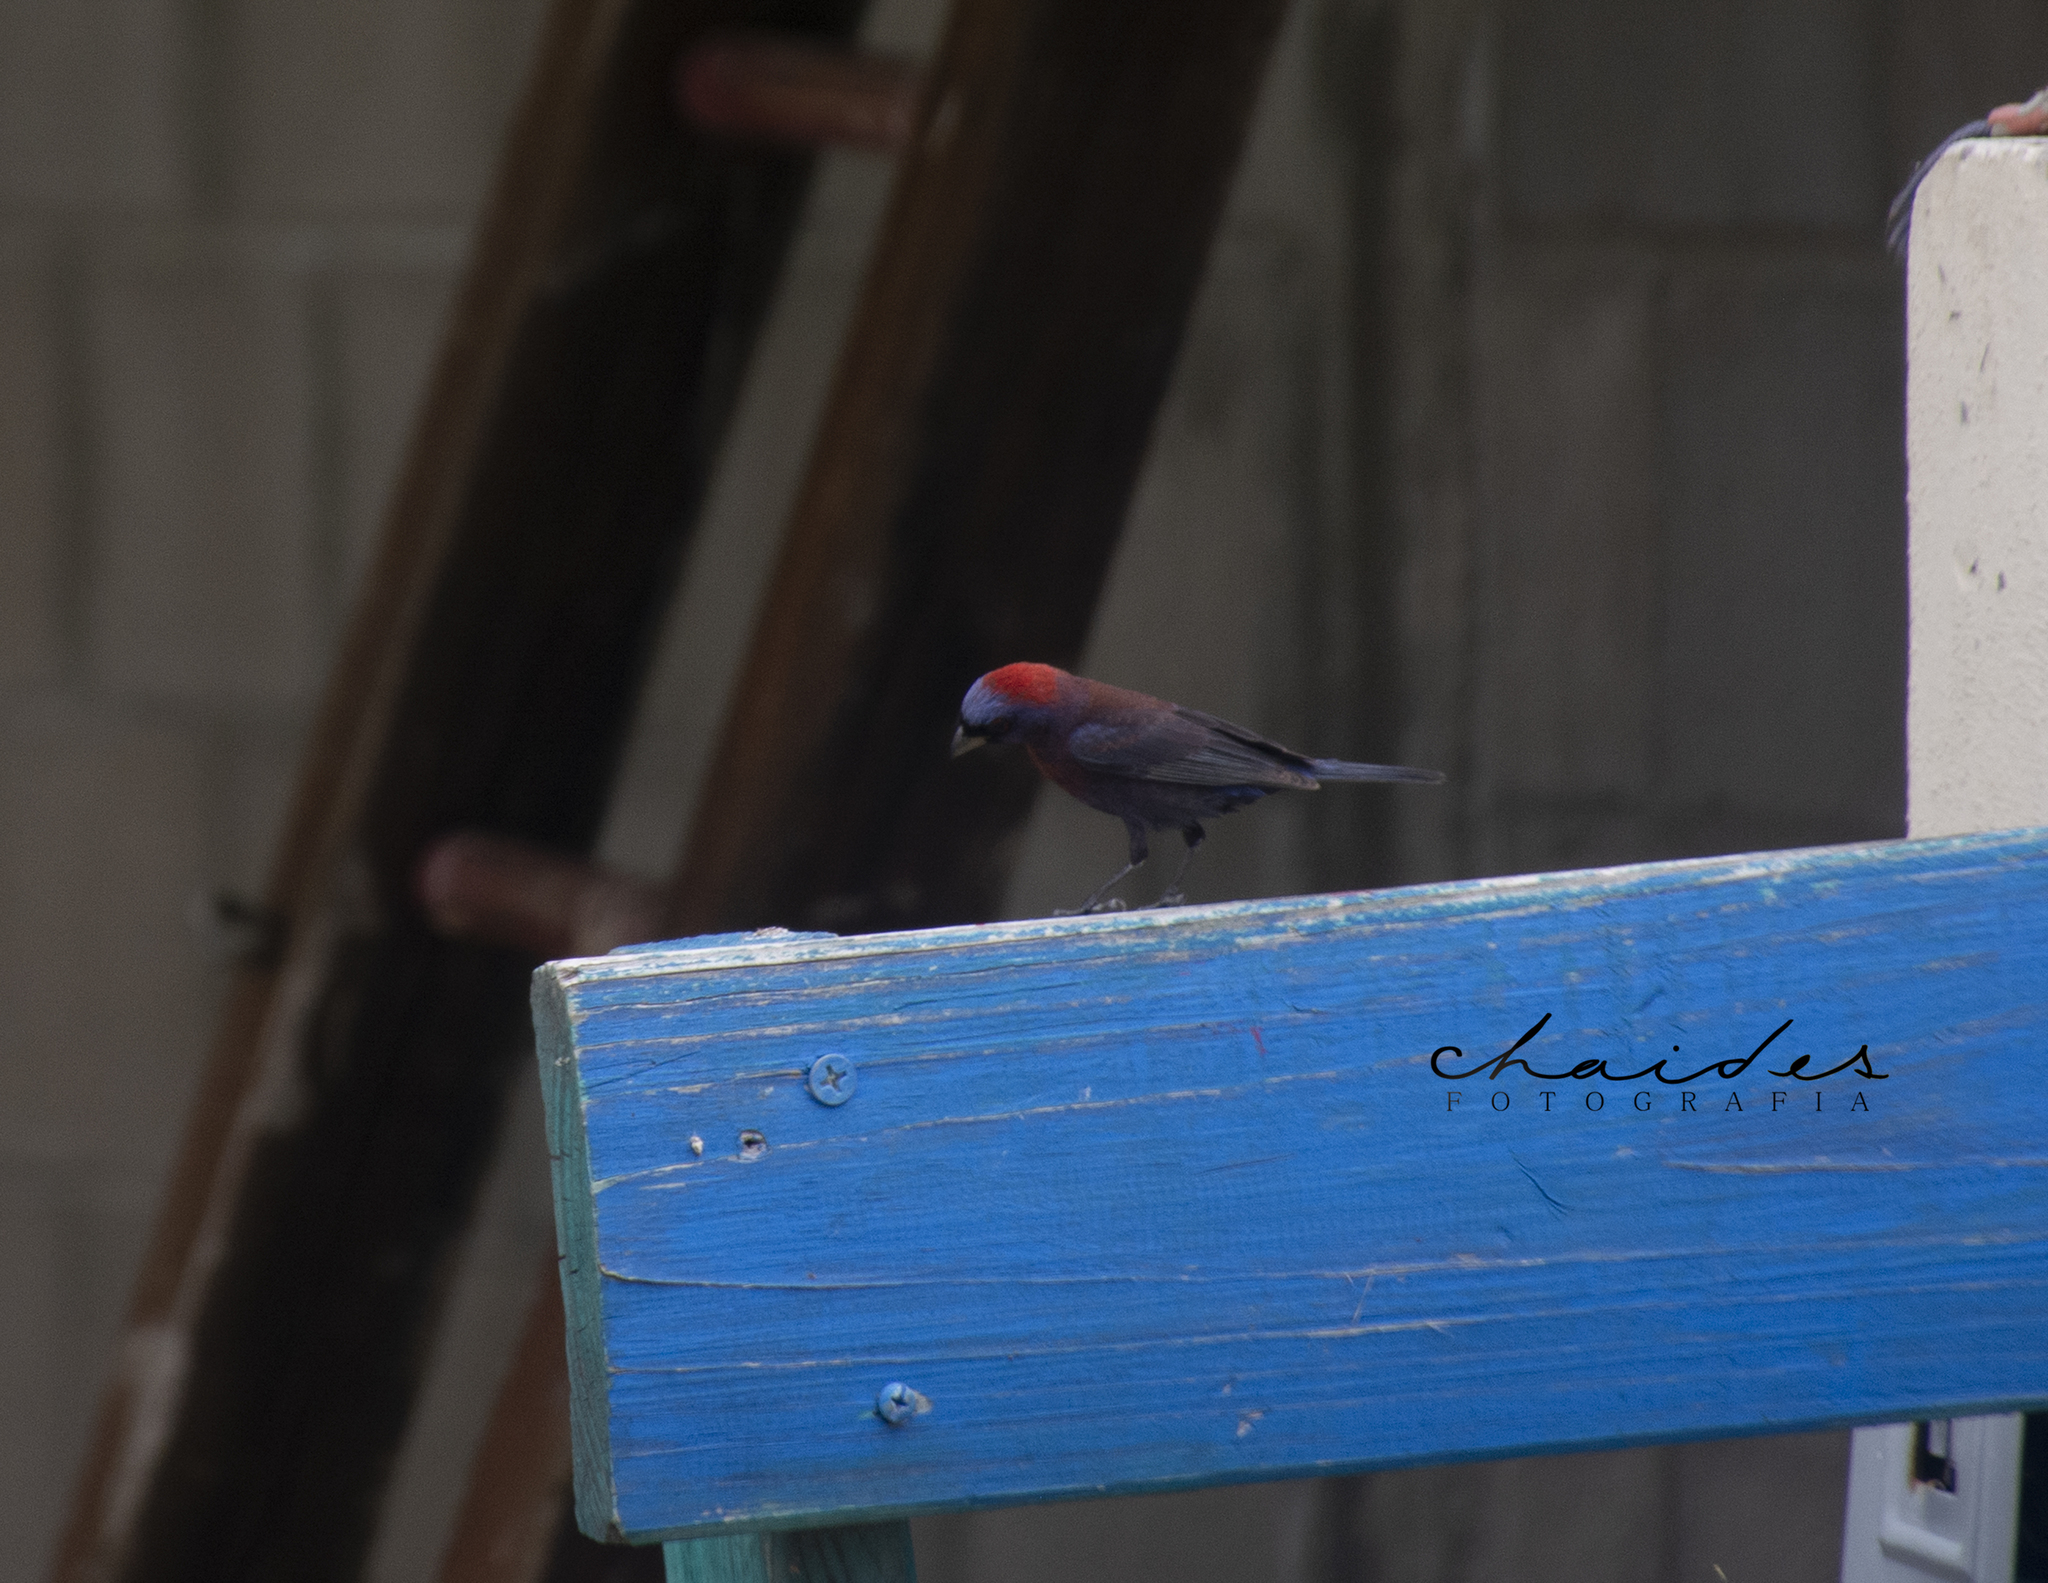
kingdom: Animalia
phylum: Chordata
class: Aves
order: Passeriformes
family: Cardinalidae
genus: Passerina
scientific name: Passerina versicolor
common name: Varied bunting
